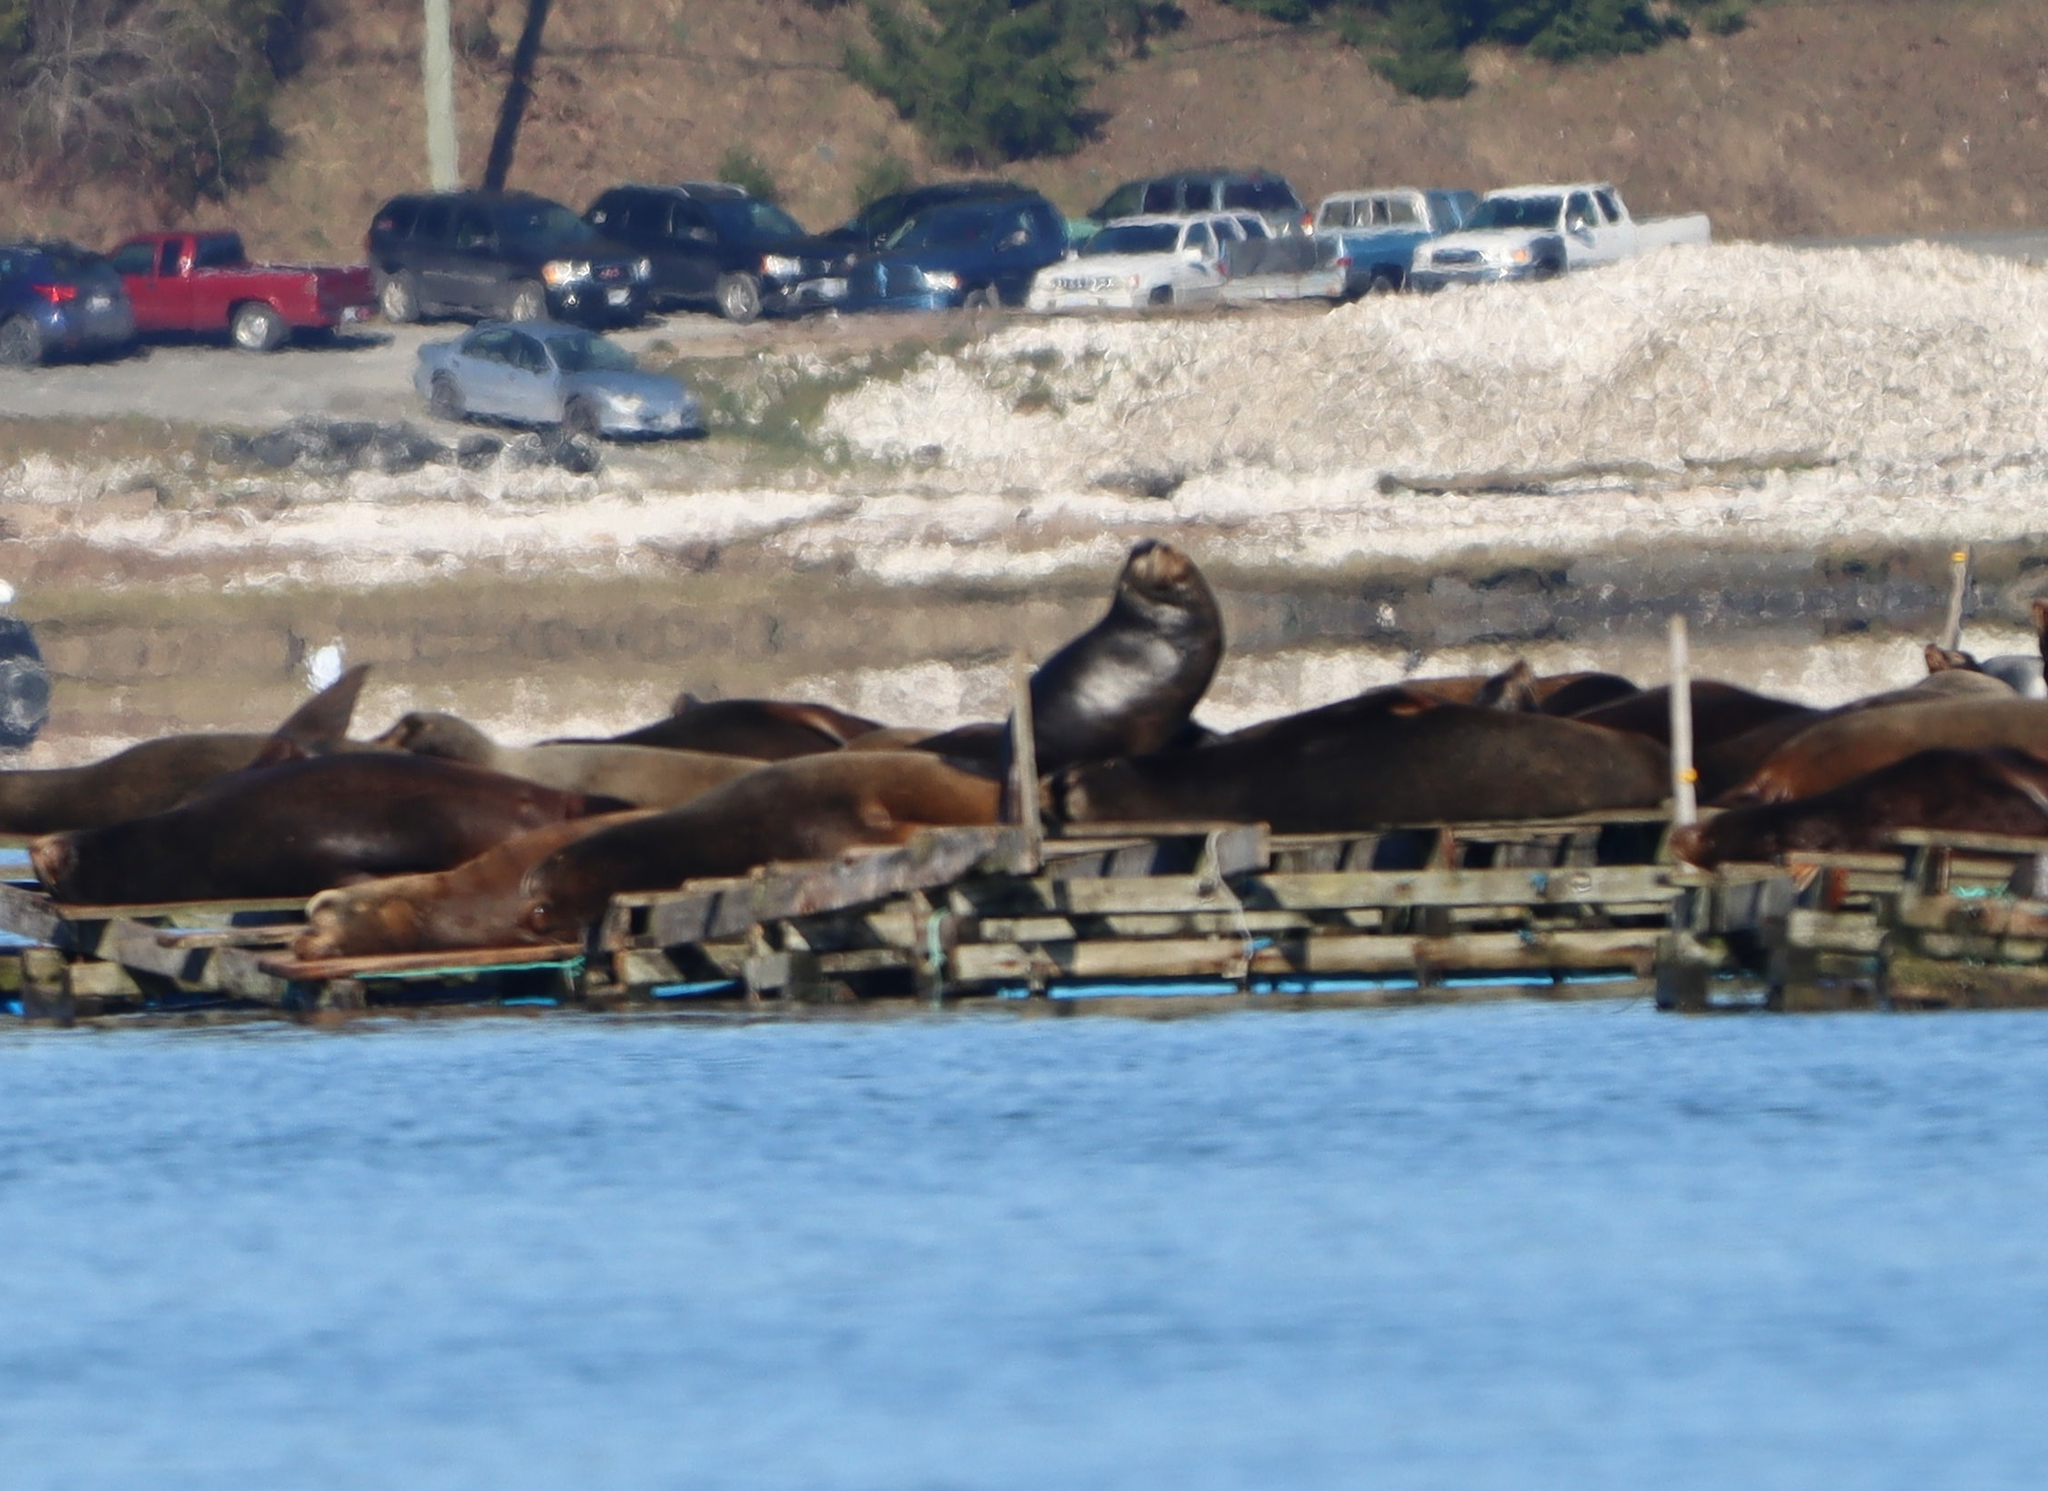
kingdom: Animalia
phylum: Chordata
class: Mammalia
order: Carnivora
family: Otariidae
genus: Zalophus
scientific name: Zalophus californianus
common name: California sea lion
